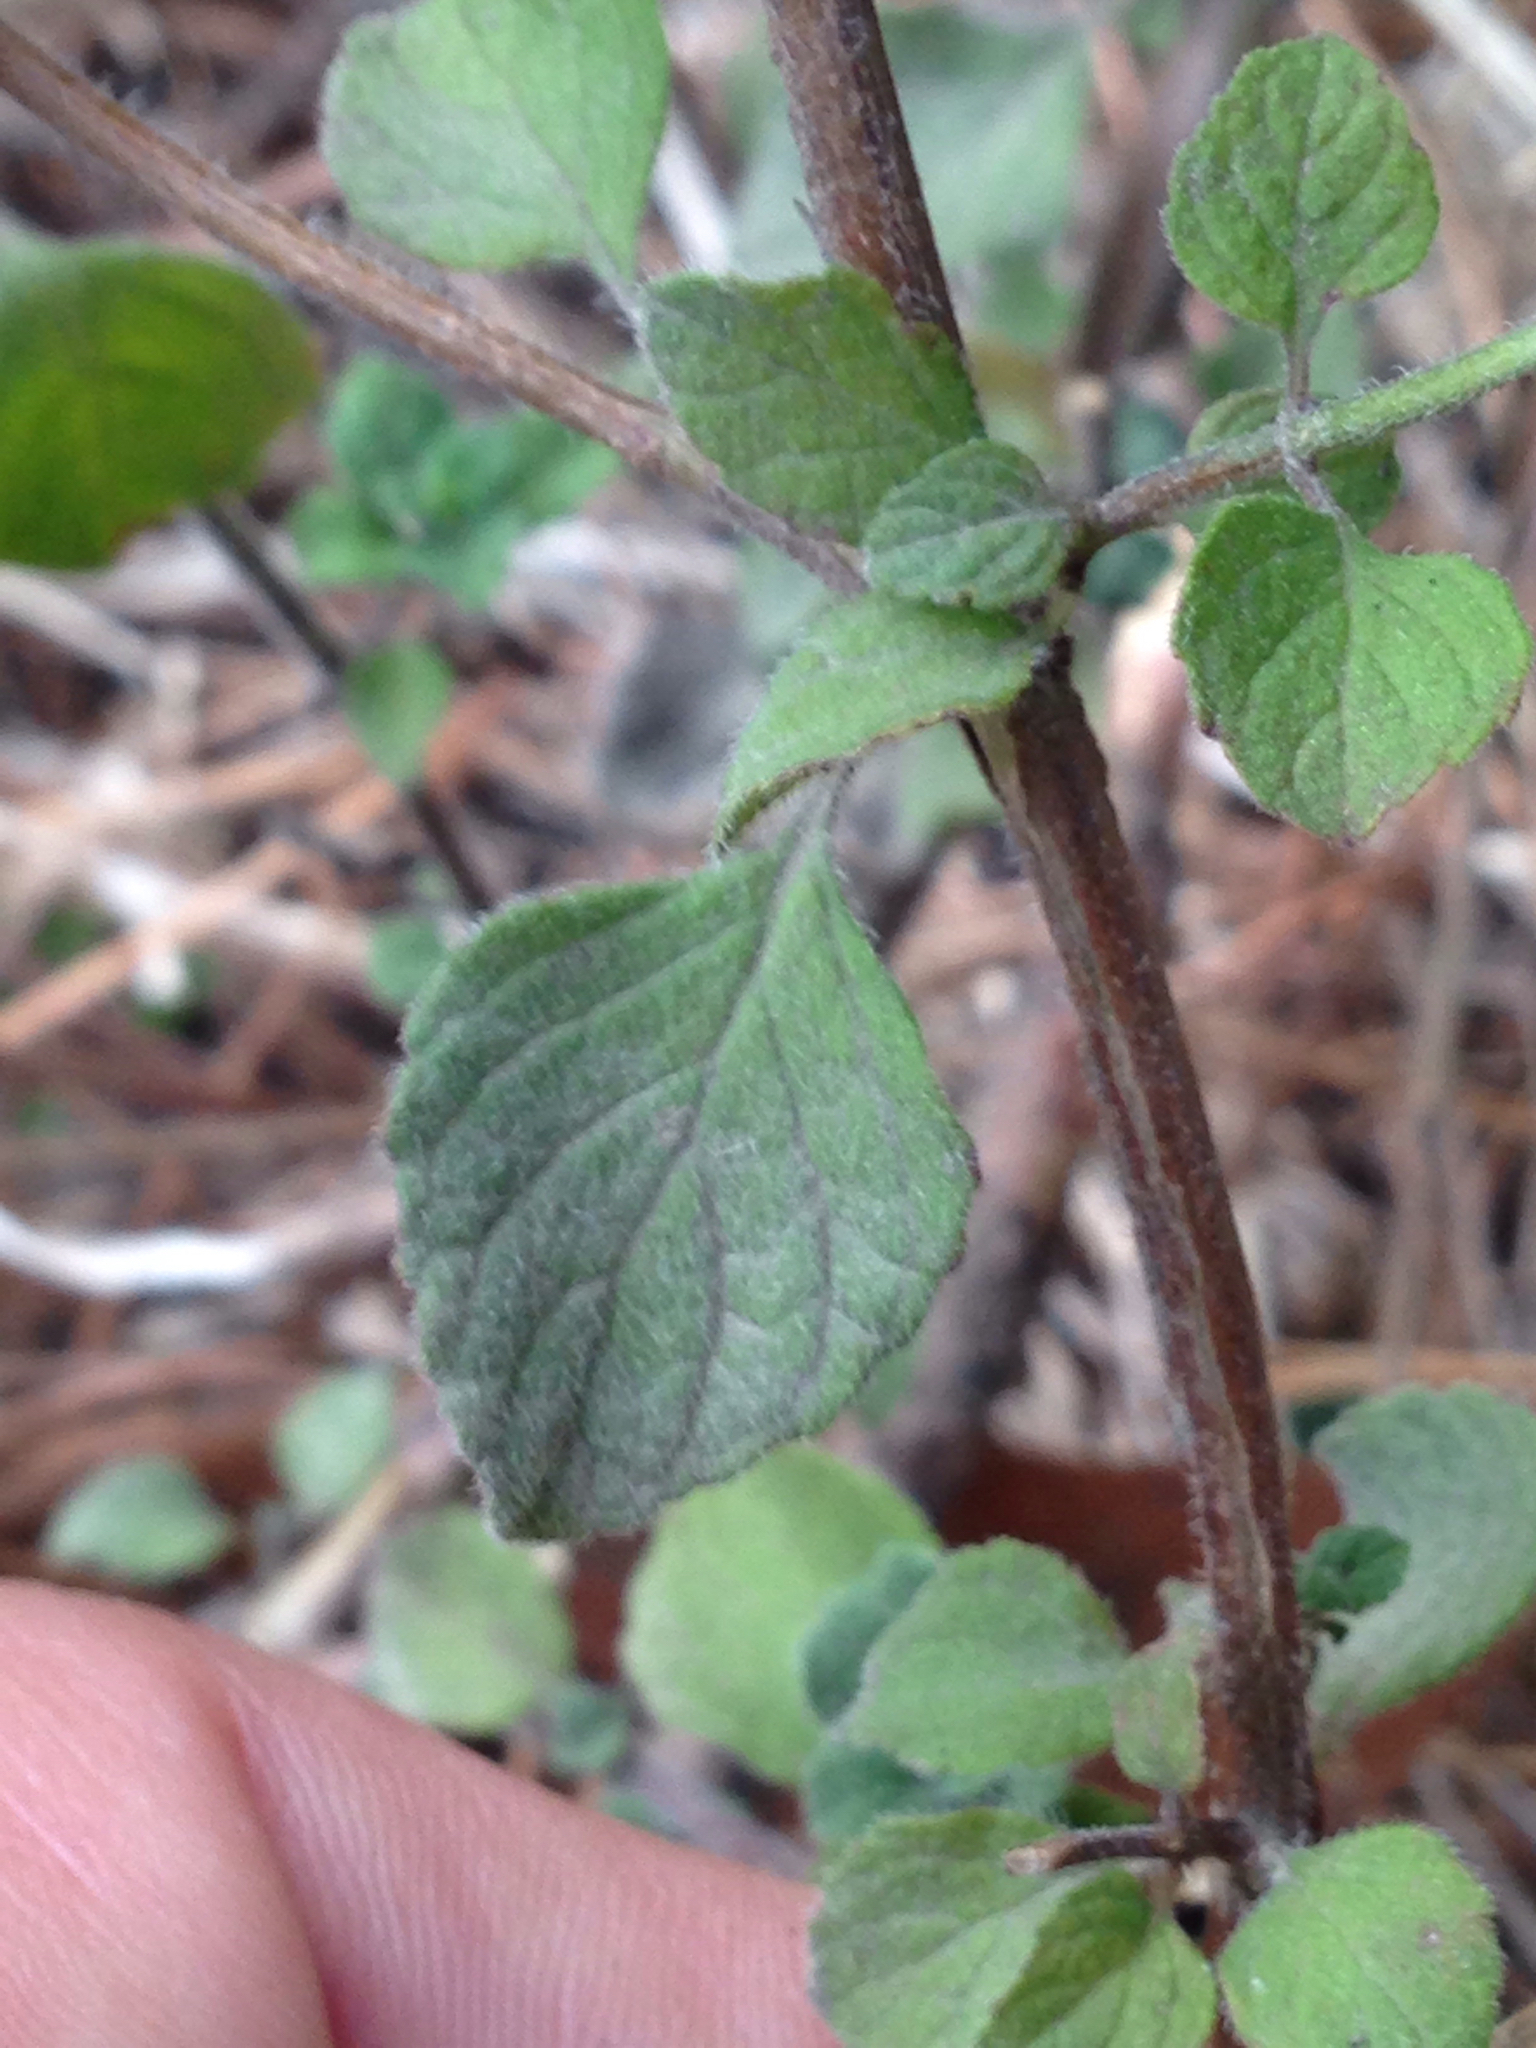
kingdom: Plantae
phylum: Tracheophyta
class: Magnoliopsida
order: Lamiales
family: Lamiaceae
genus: Clinopodium
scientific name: Clinopodium menthifolium
